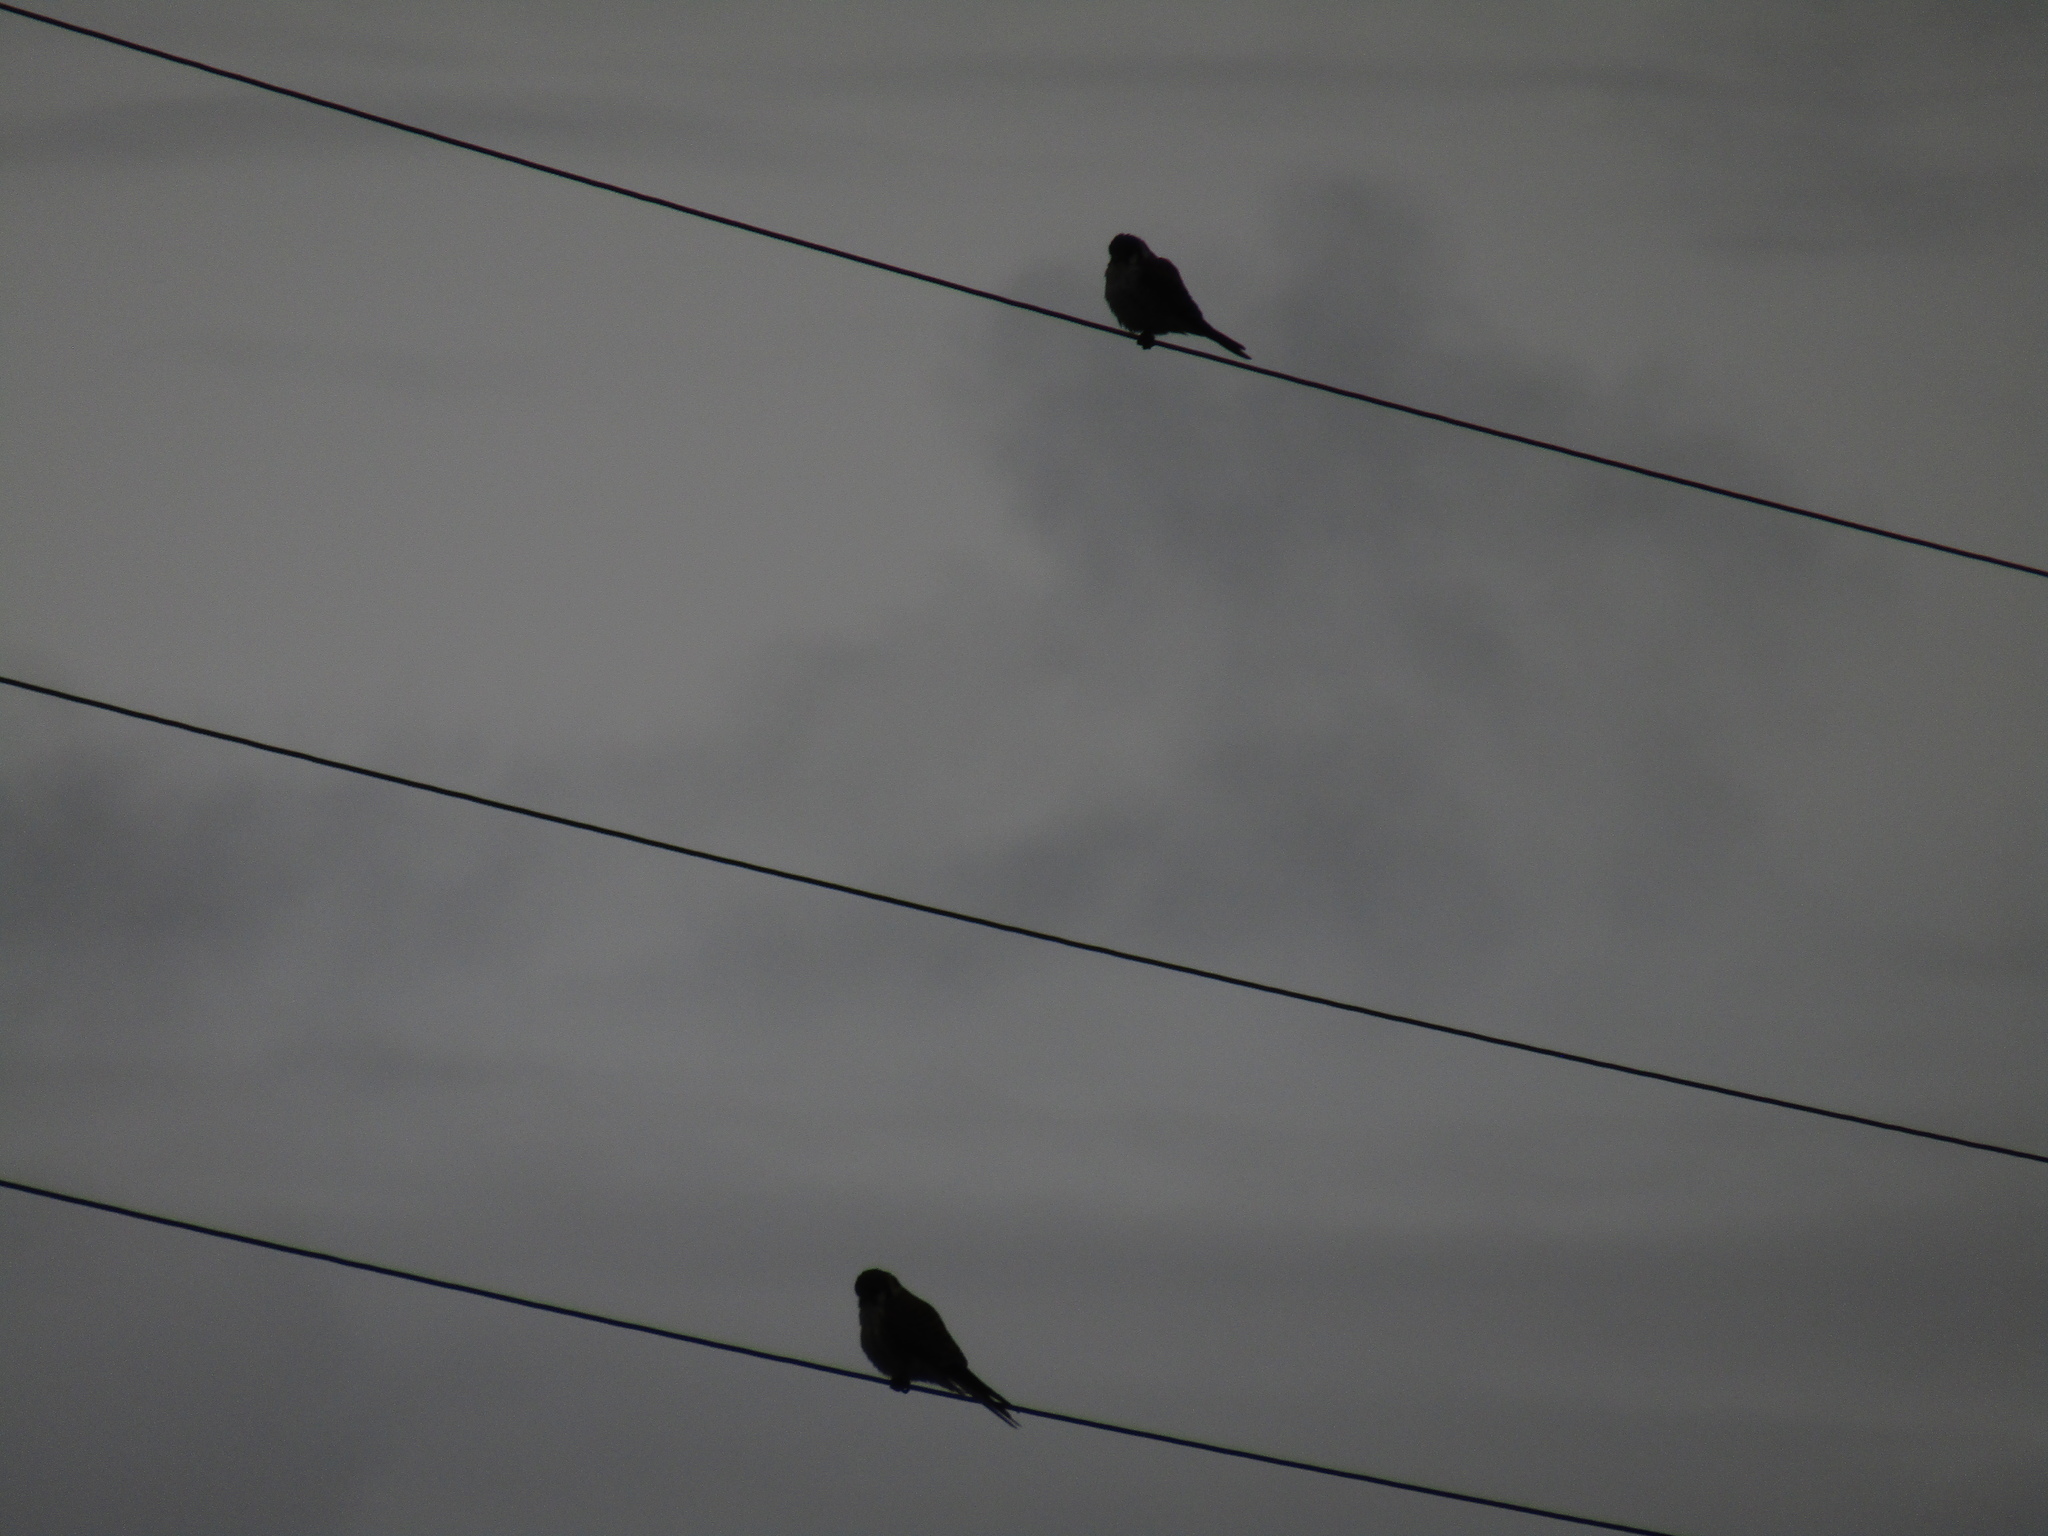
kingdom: Animalia
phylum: Chordata
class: Aves
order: Falconiformes
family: Falconidae
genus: Falco
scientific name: Falco sparverius
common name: American kestrel
